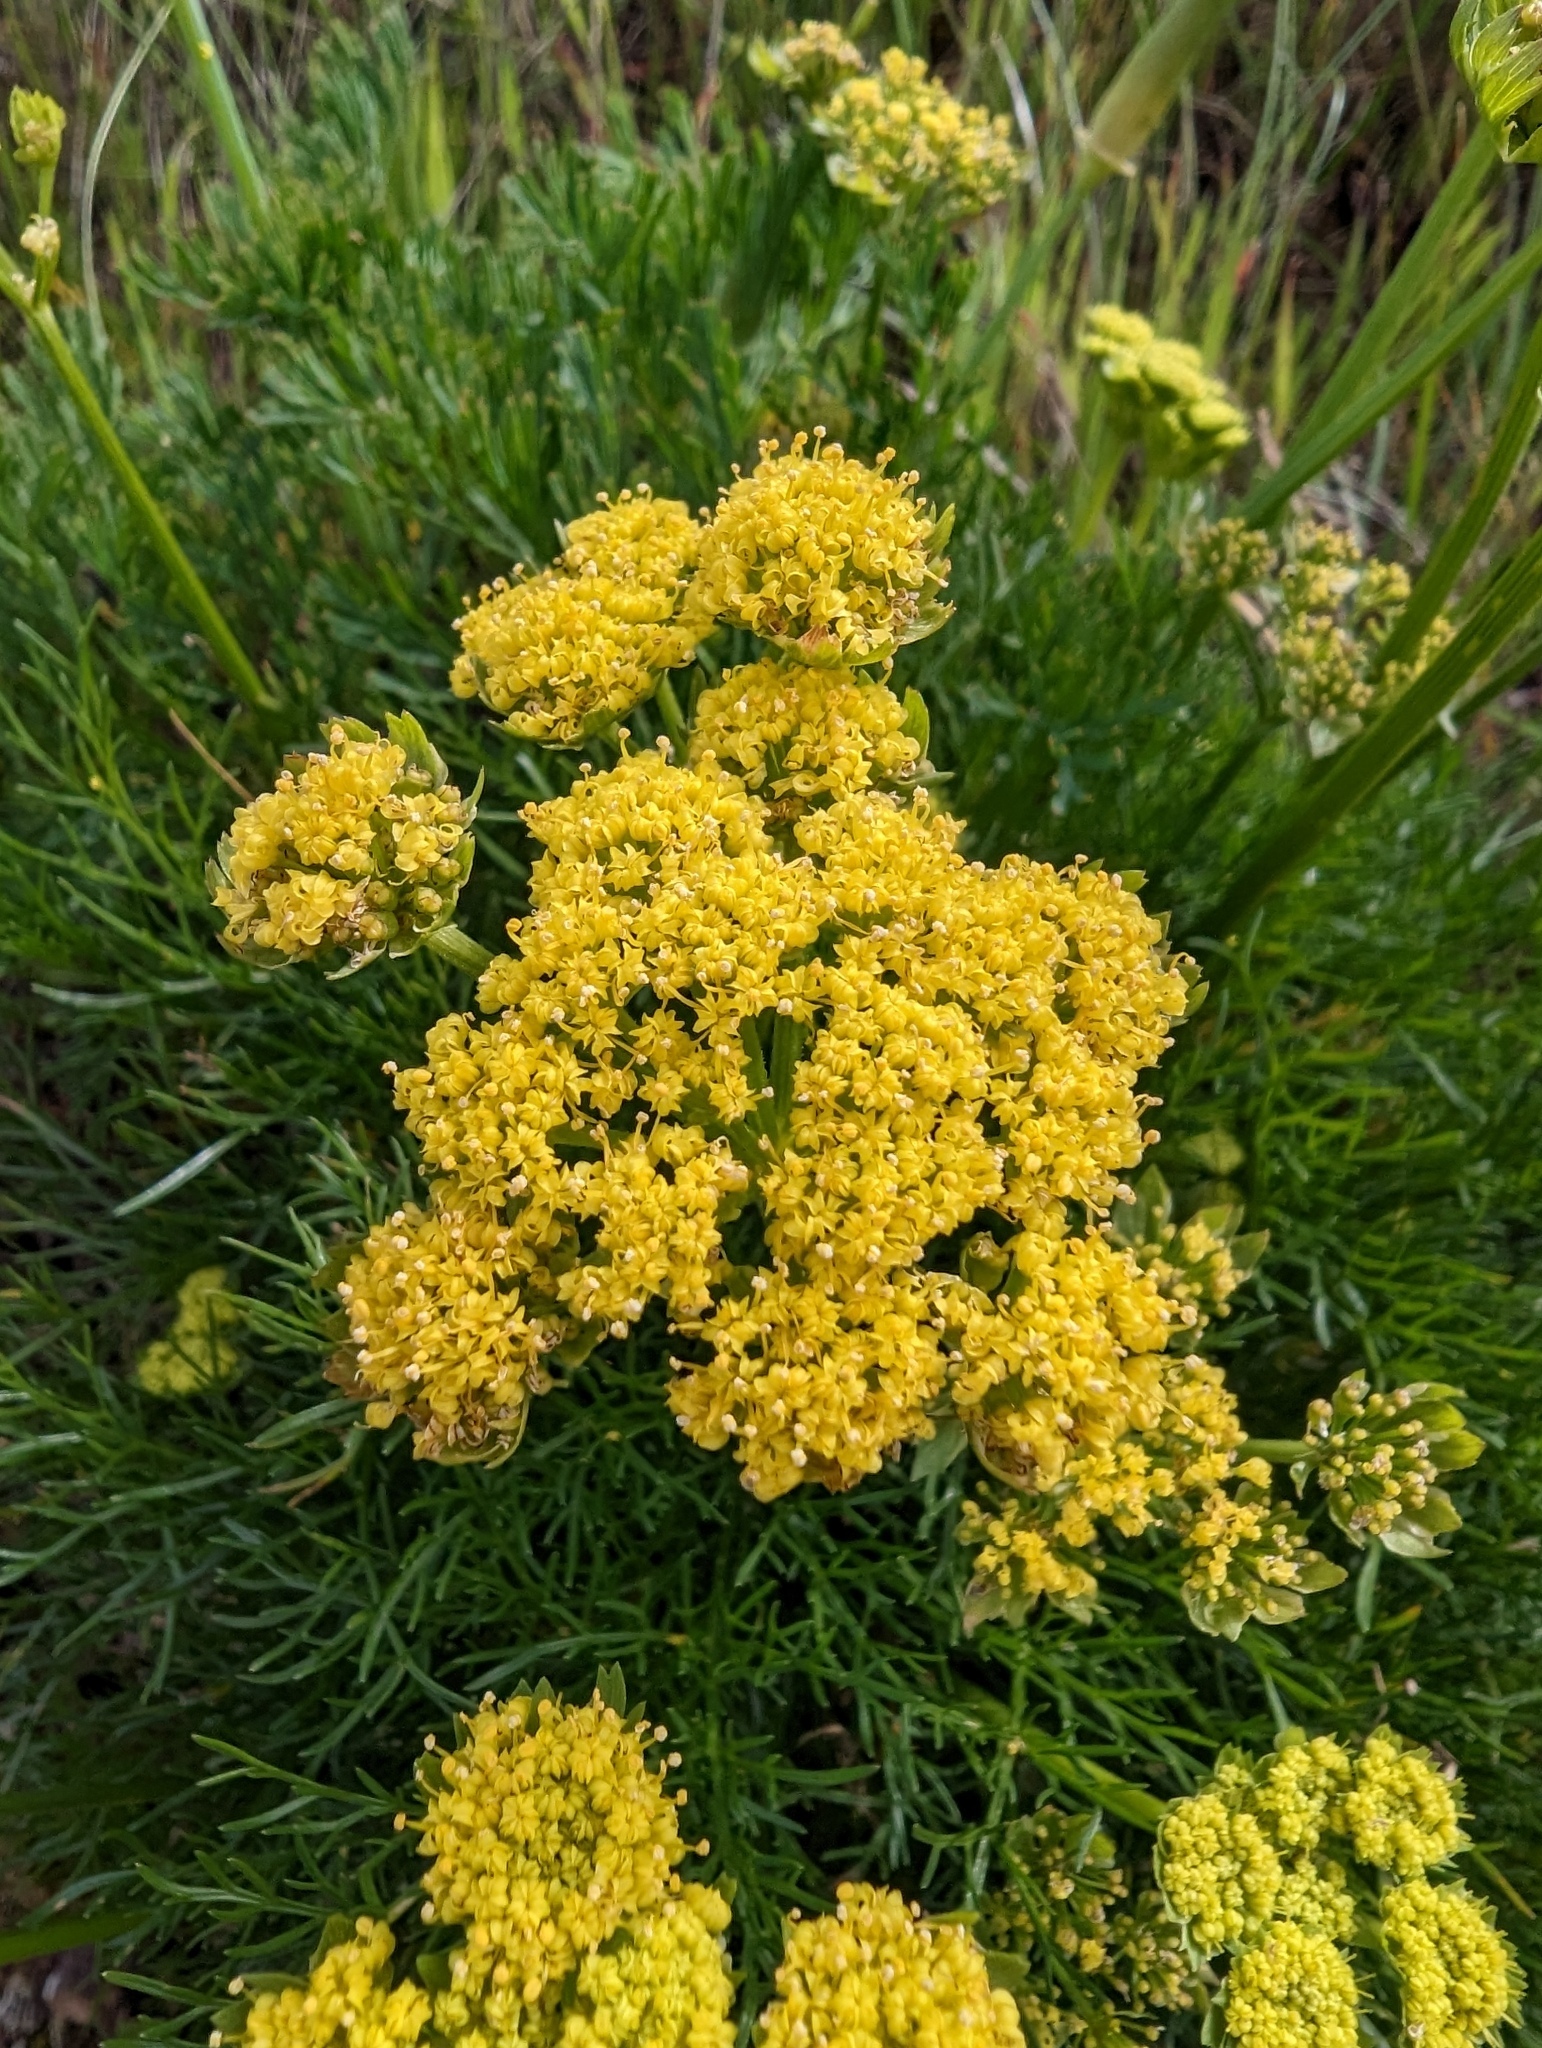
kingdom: Plantae
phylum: Tracheophyta
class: Magnoliopsida
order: Apiales
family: Apiaceae
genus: Lomatium
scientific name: Lomatium utriculatum
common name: Fine-leaf desert-parsley
